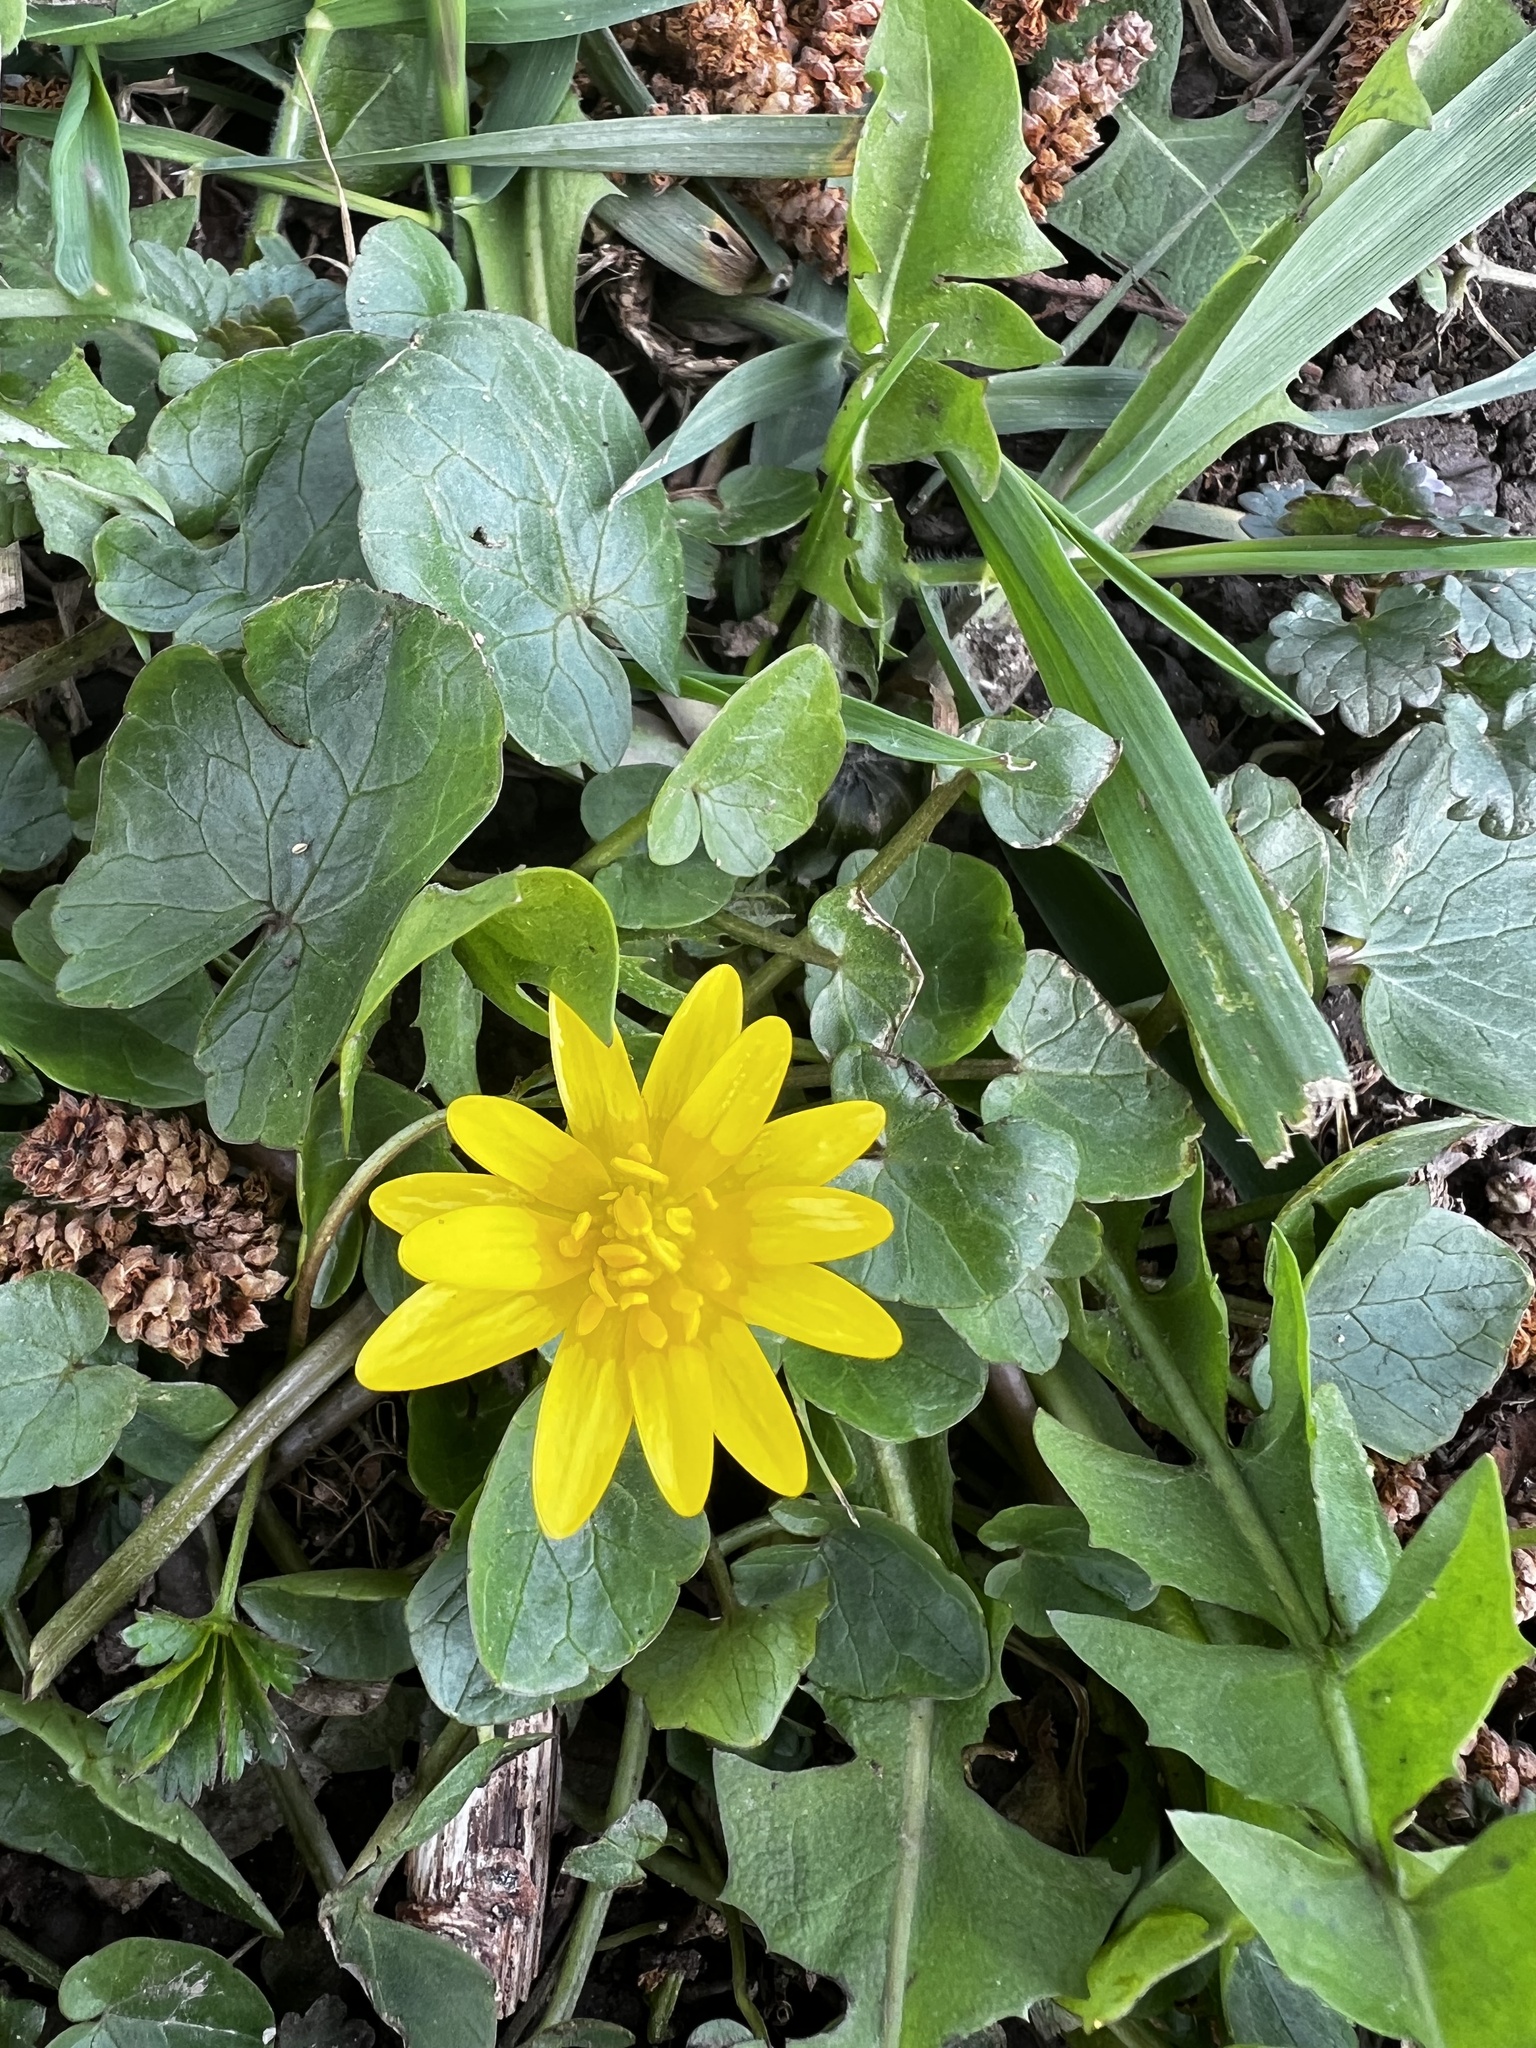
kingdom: Plantae
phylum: Tracheophyta
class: Magnoliopsida
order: Ranunculales
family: Ranunculaceae
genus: Ficaria
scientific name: Ficaria verna
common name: Lesser celandine
